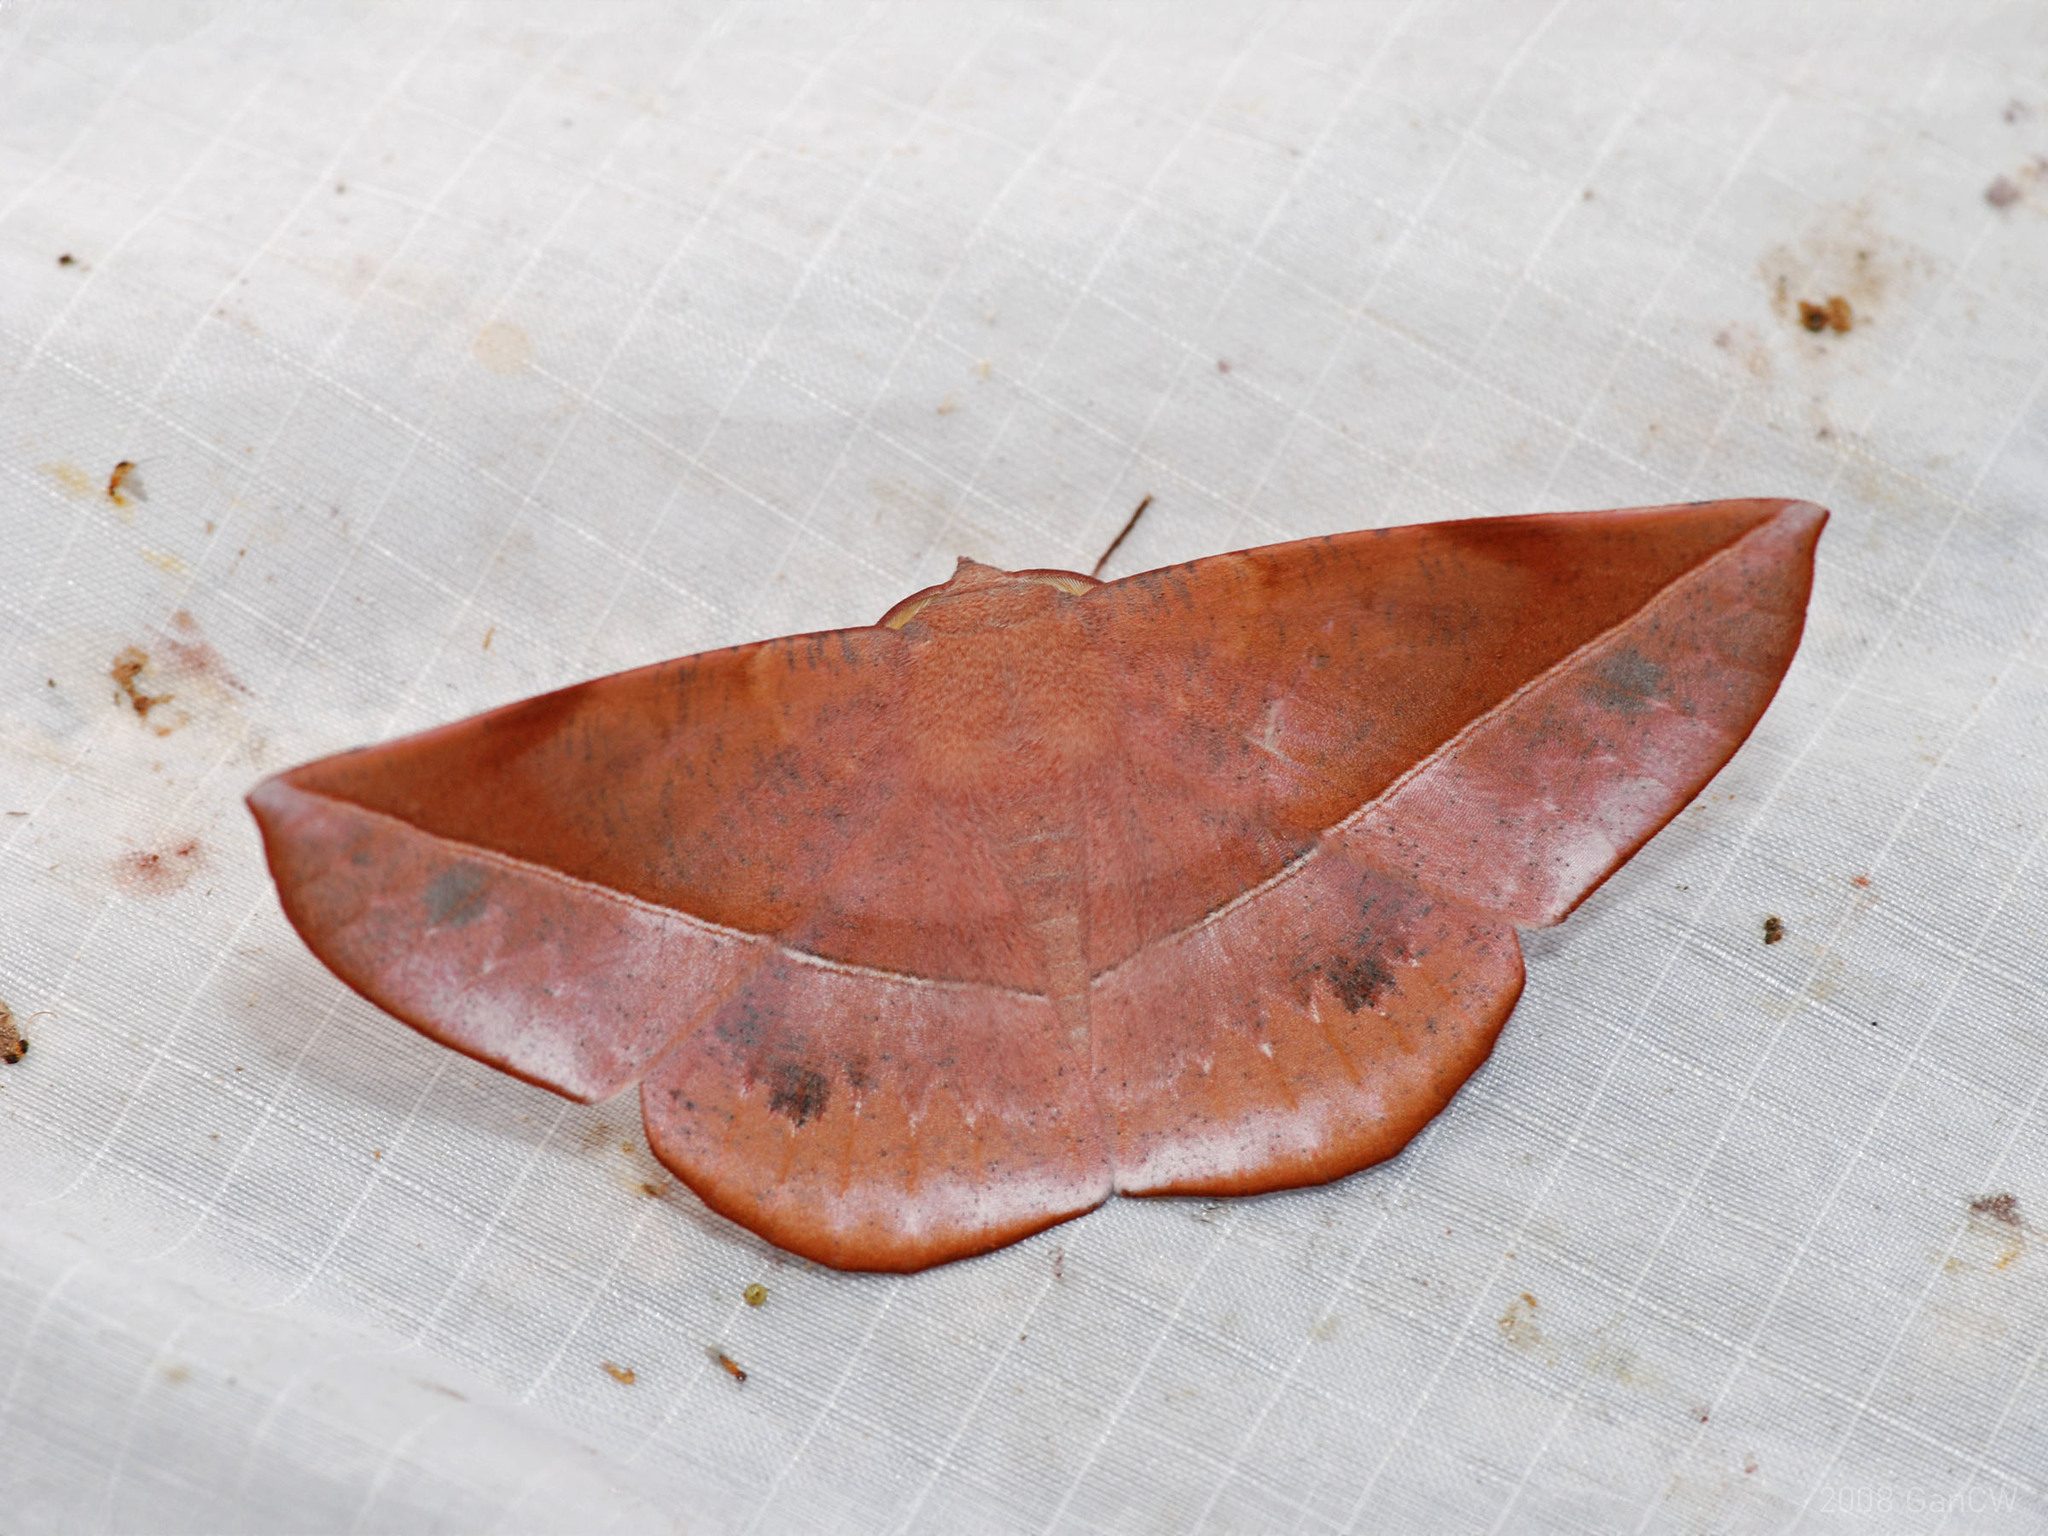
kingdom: Animalia
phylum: Arthropoda
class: Insecta
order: Lepidoptera
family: Geometridae
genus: Sarcinodes
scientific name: Sarcinodes sumatraria
